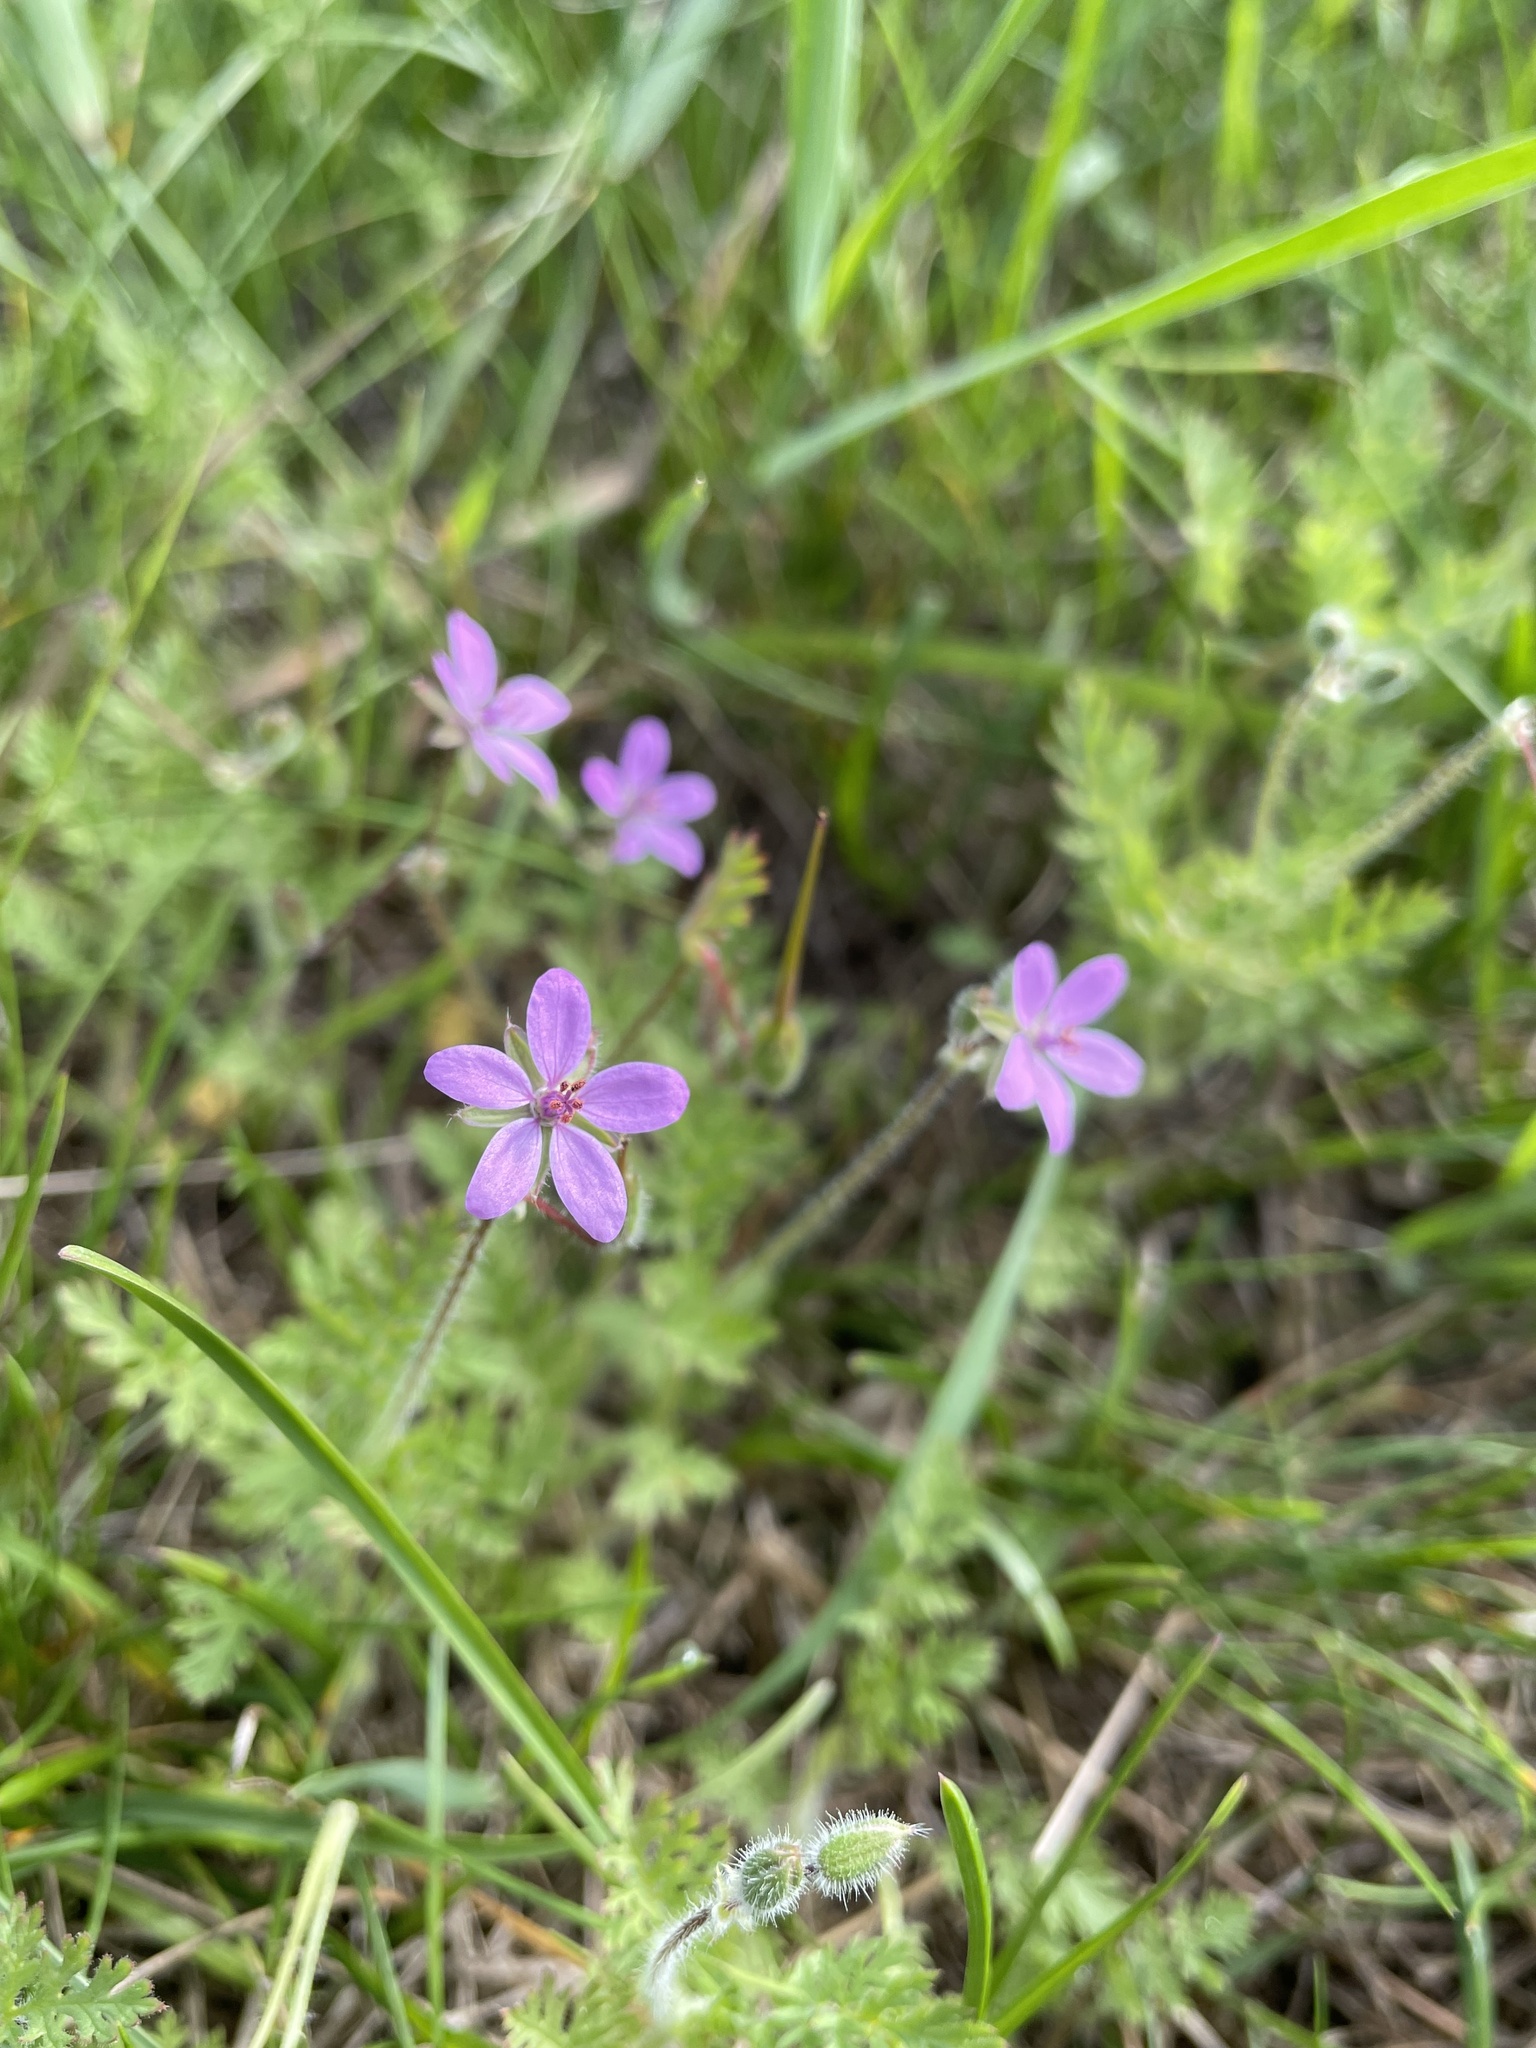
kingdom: Plantae
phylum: Tracheophyta
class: Magnoliopsida
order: Geraniales
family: Geraniaceae
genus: Erodium
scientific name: Erodium cicutarium
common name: Common stork's-bill
